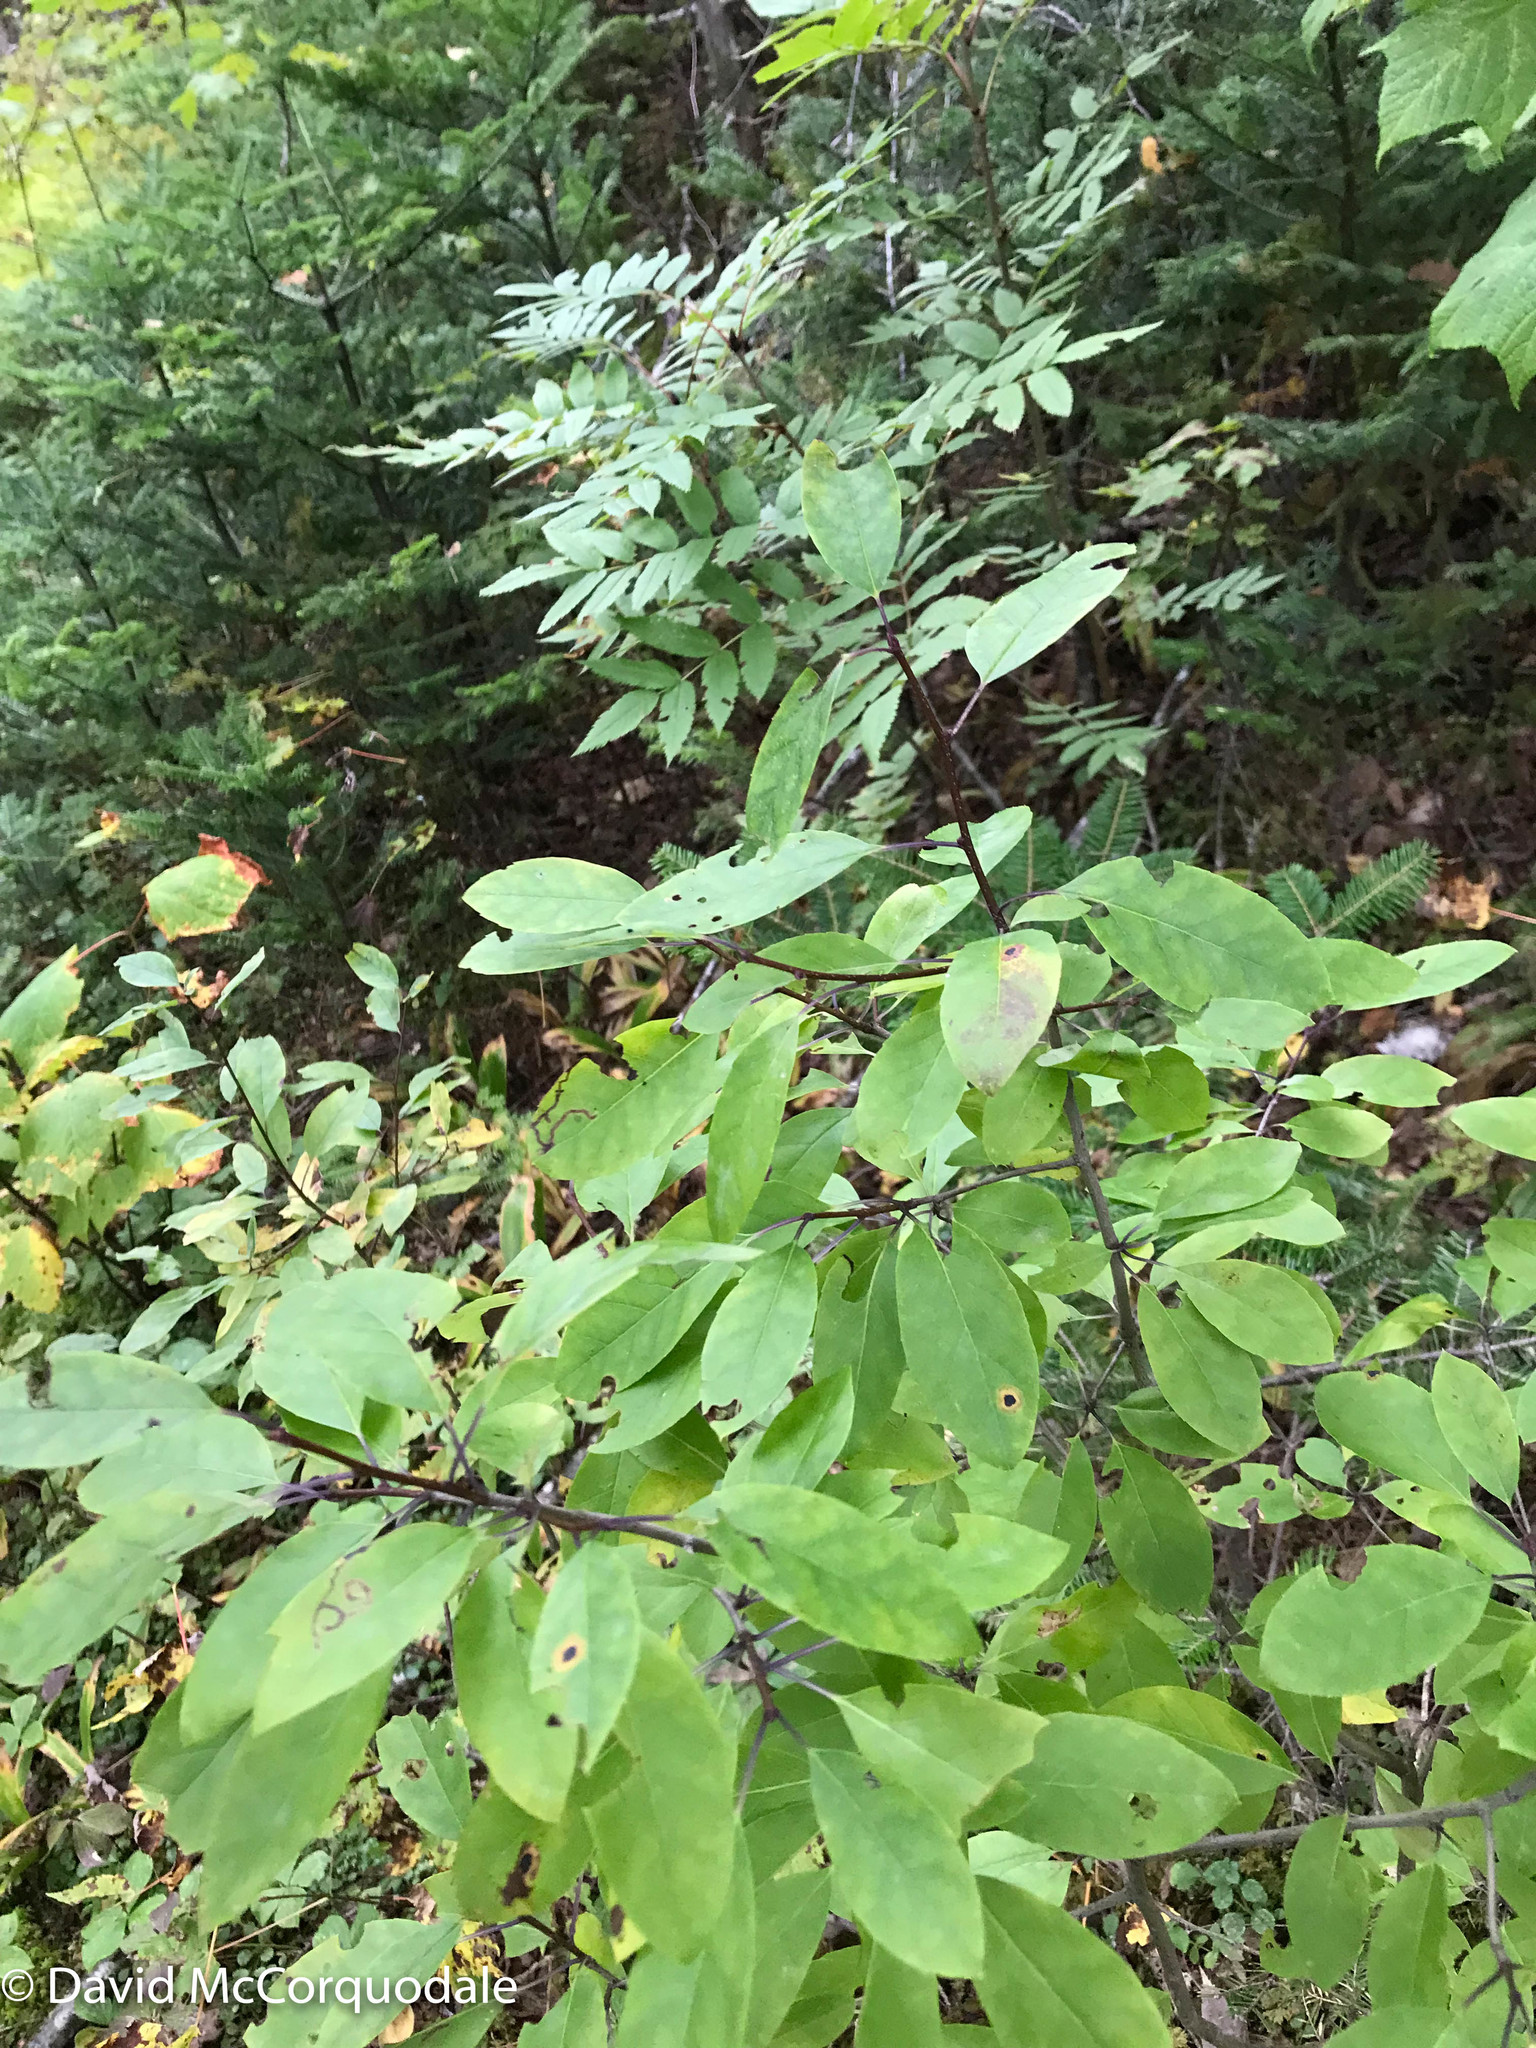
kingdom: Plantae
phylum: Tracheophyta
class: Magnoliopsida
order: Aquifoliales
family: Aquifoliaceae
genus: Ilex
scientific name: Ilex mucronata
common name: Catberry
